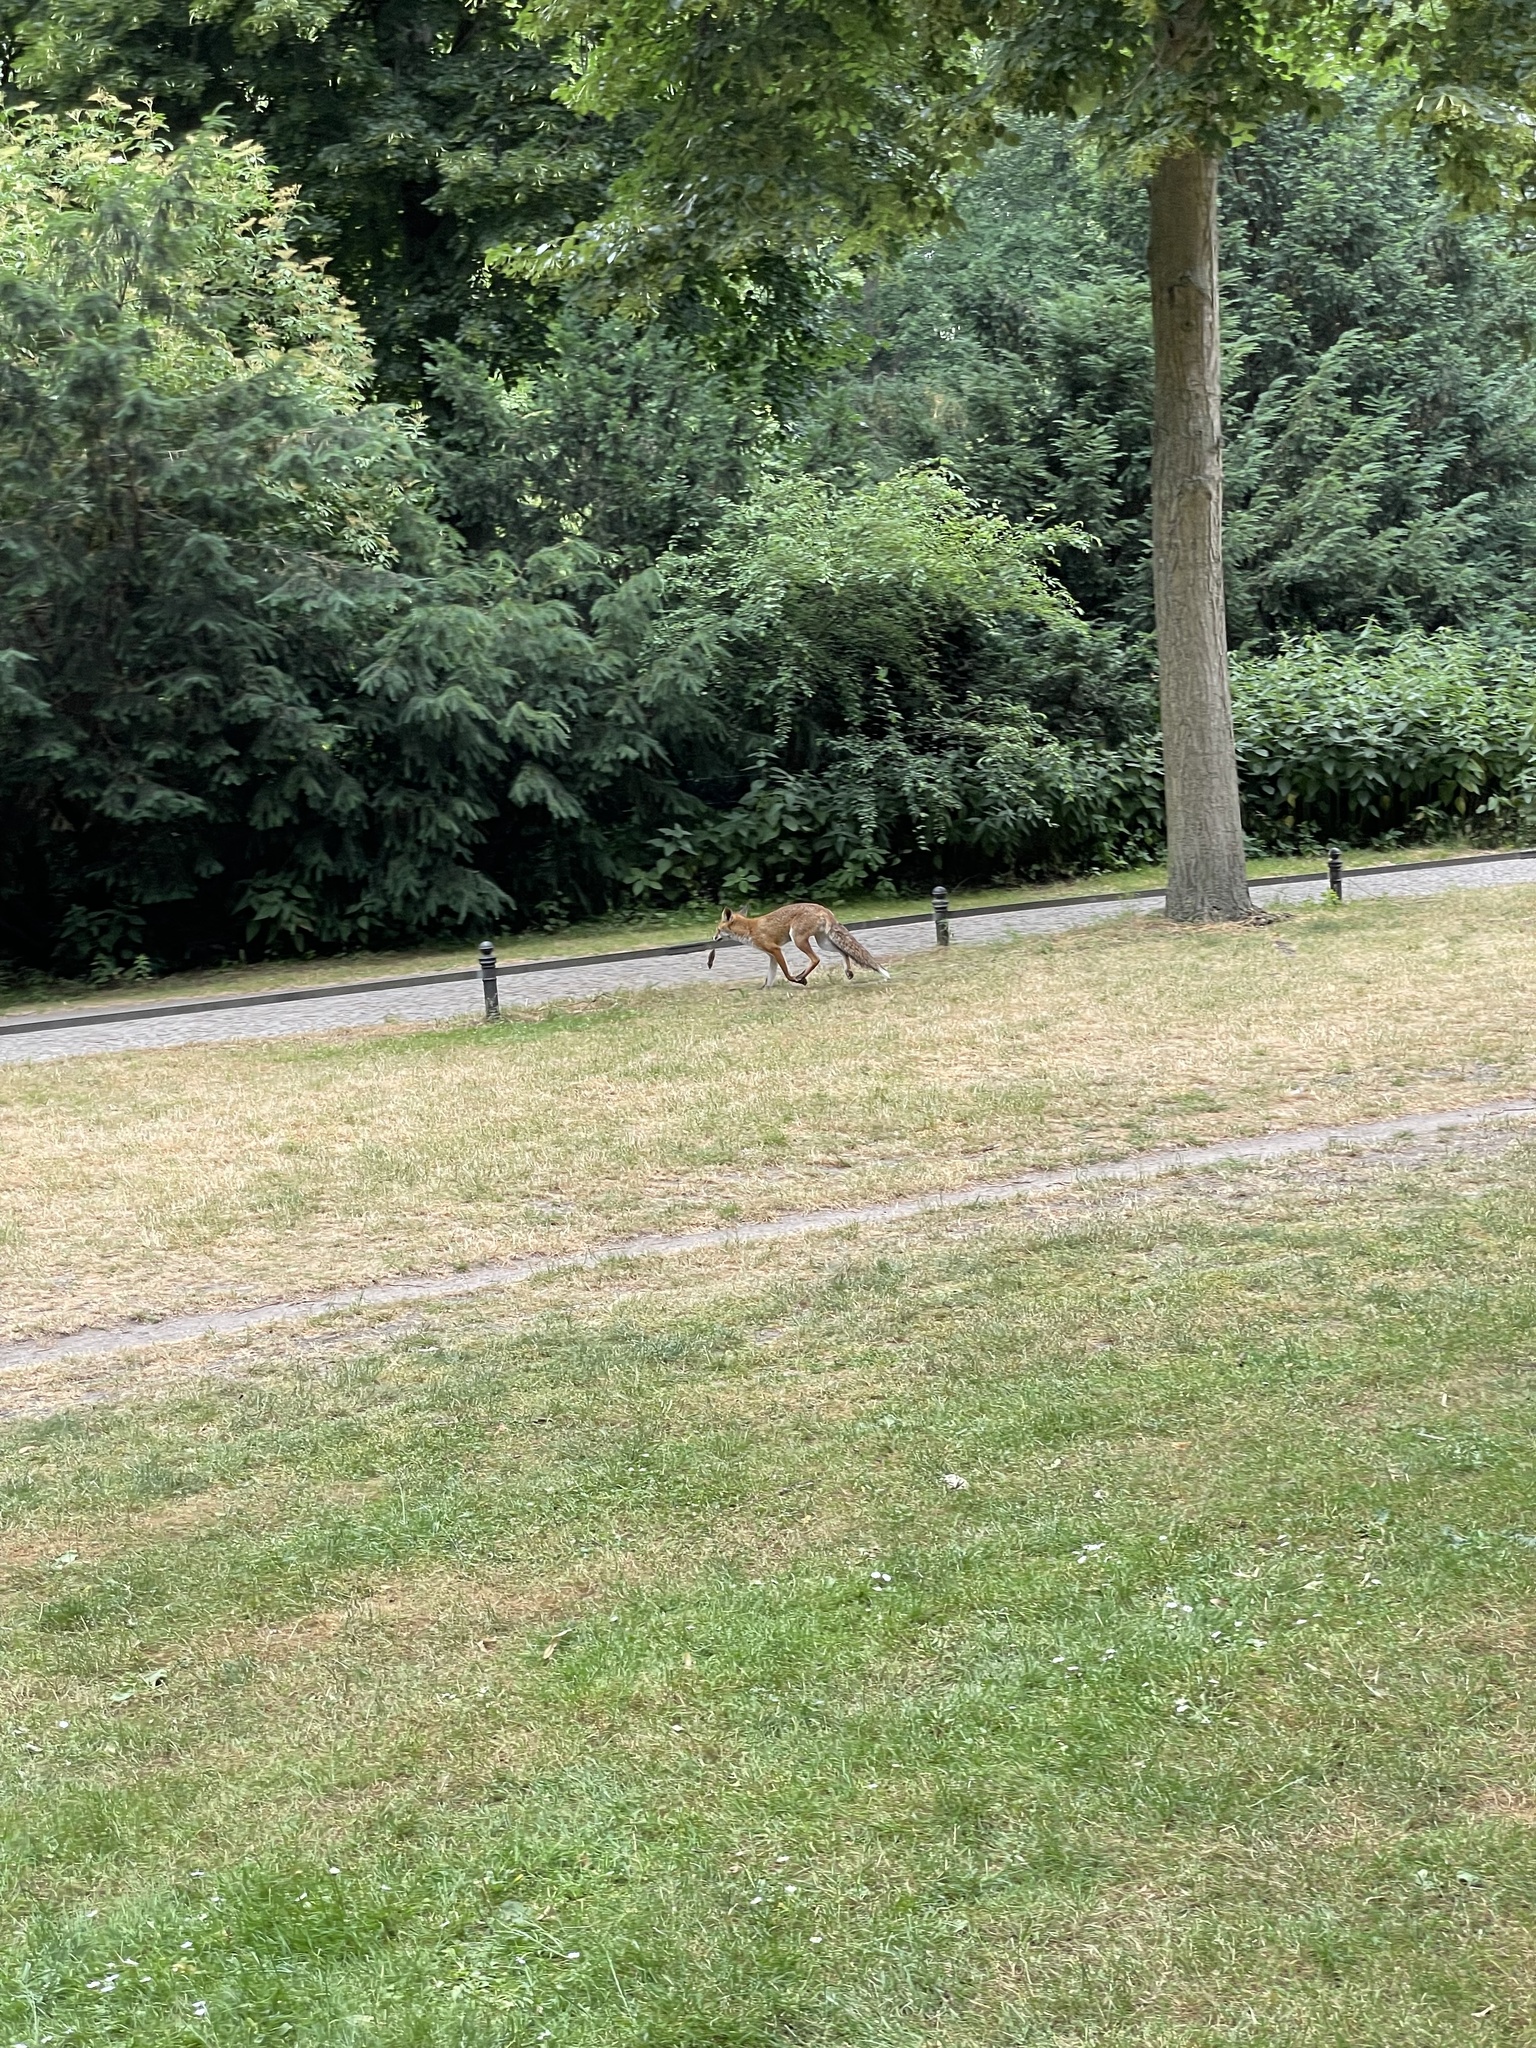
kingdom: Animalia
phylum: Chordata
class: Mammalia
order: Carnivora
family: Canidae
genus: Vulpes
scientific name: Vulpes vulpes
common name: Red fox
